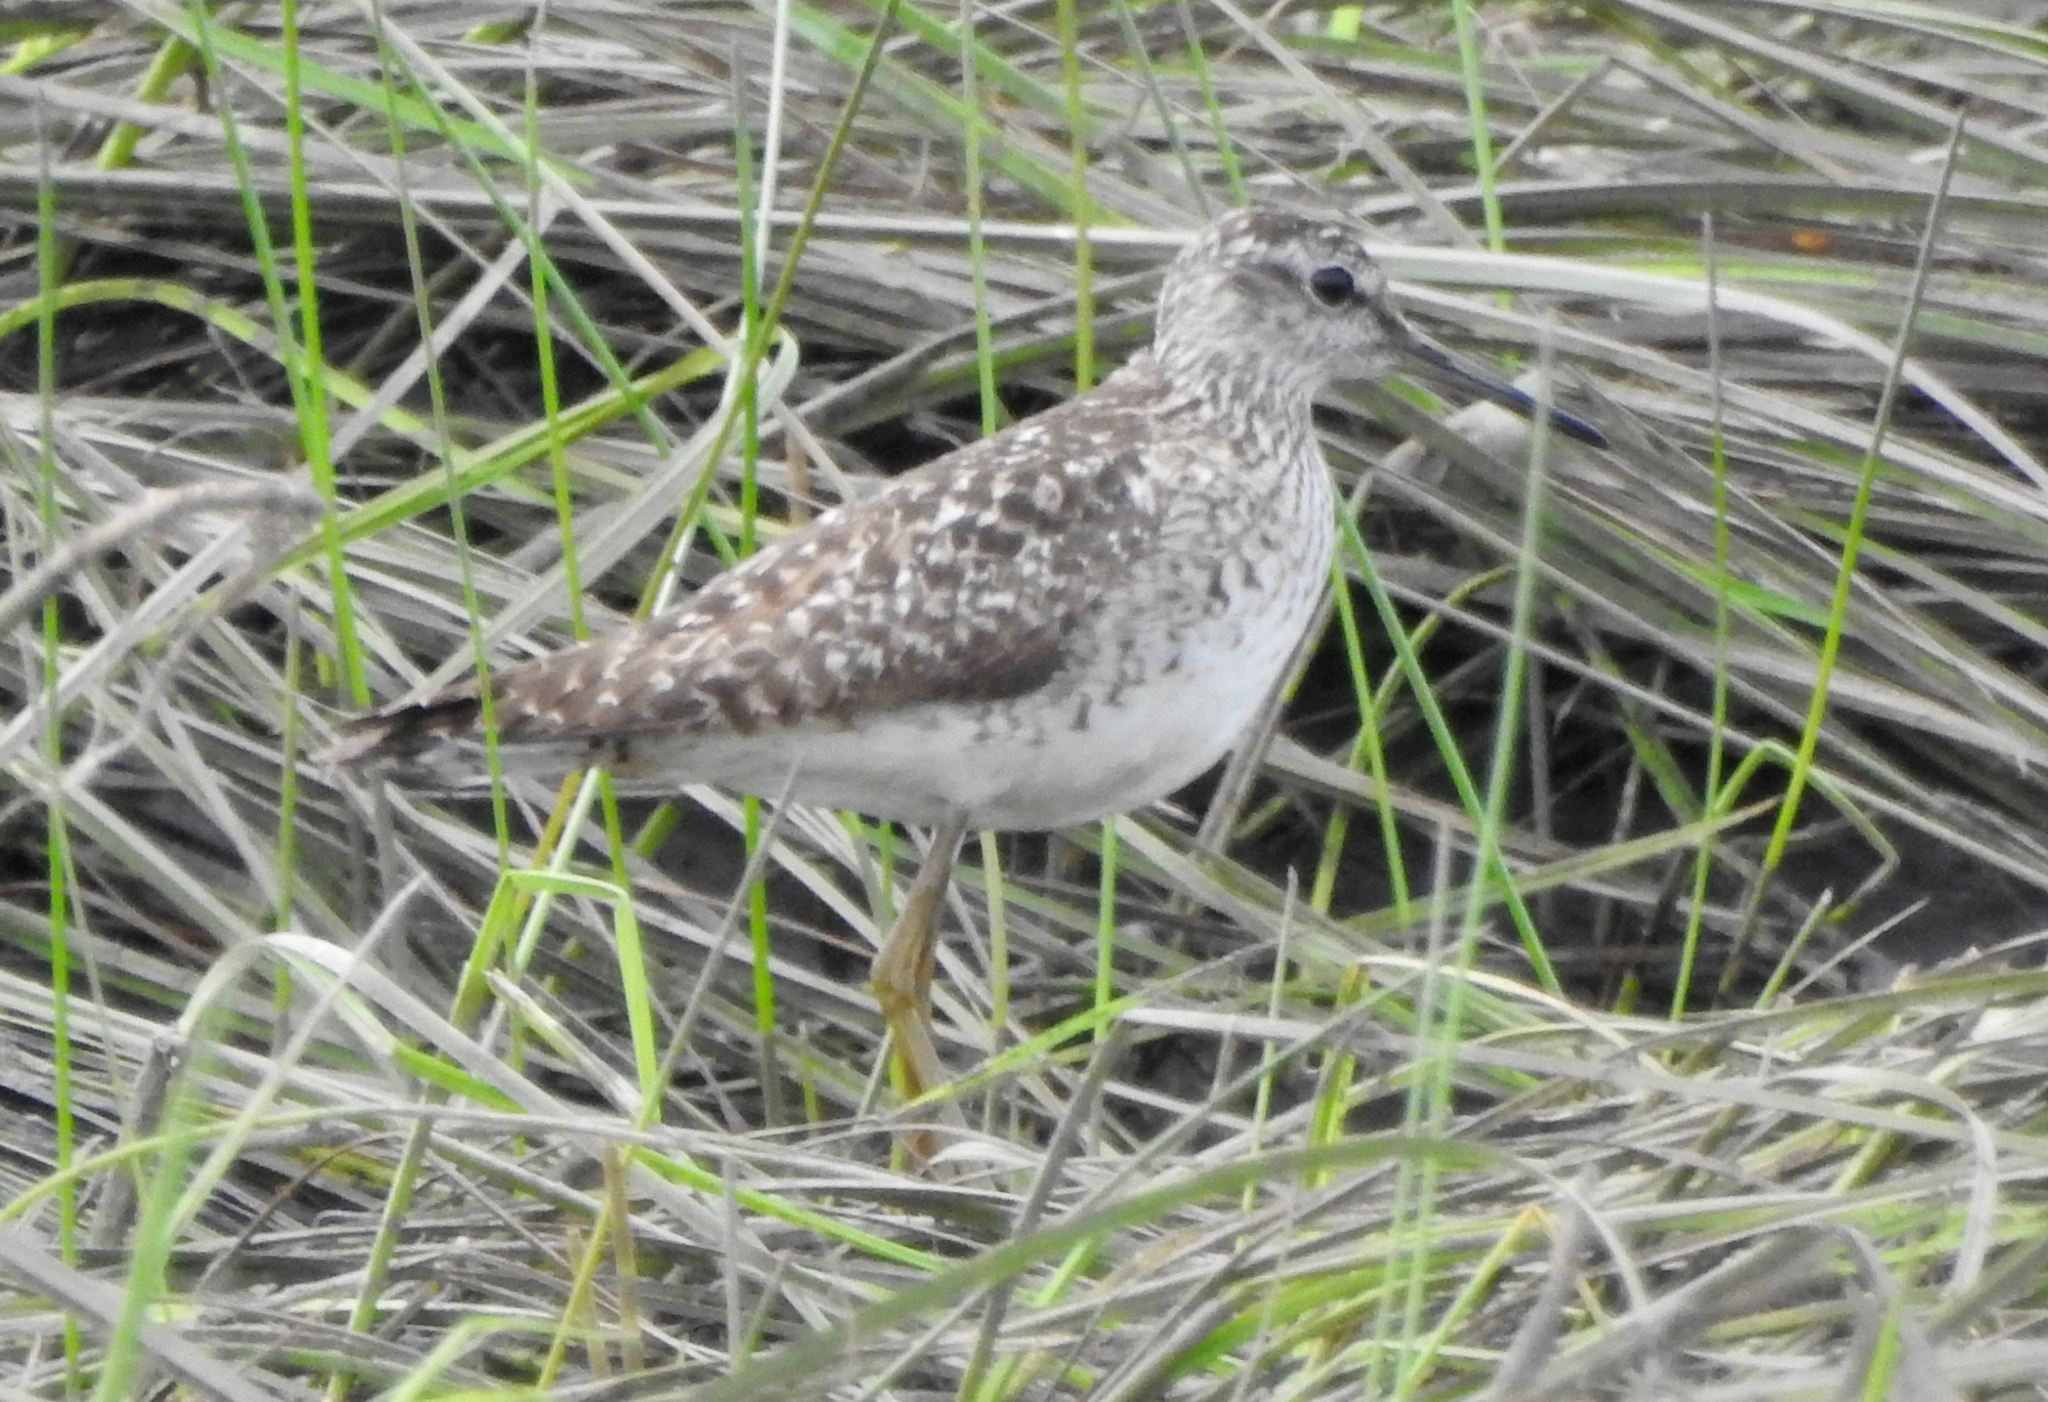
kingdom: Animalia
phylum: Chordata
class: Aves
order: Charadriiformes
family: Scolopacidae
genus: Tringa
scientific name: Tringa glareola
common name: Wood sandpiper
